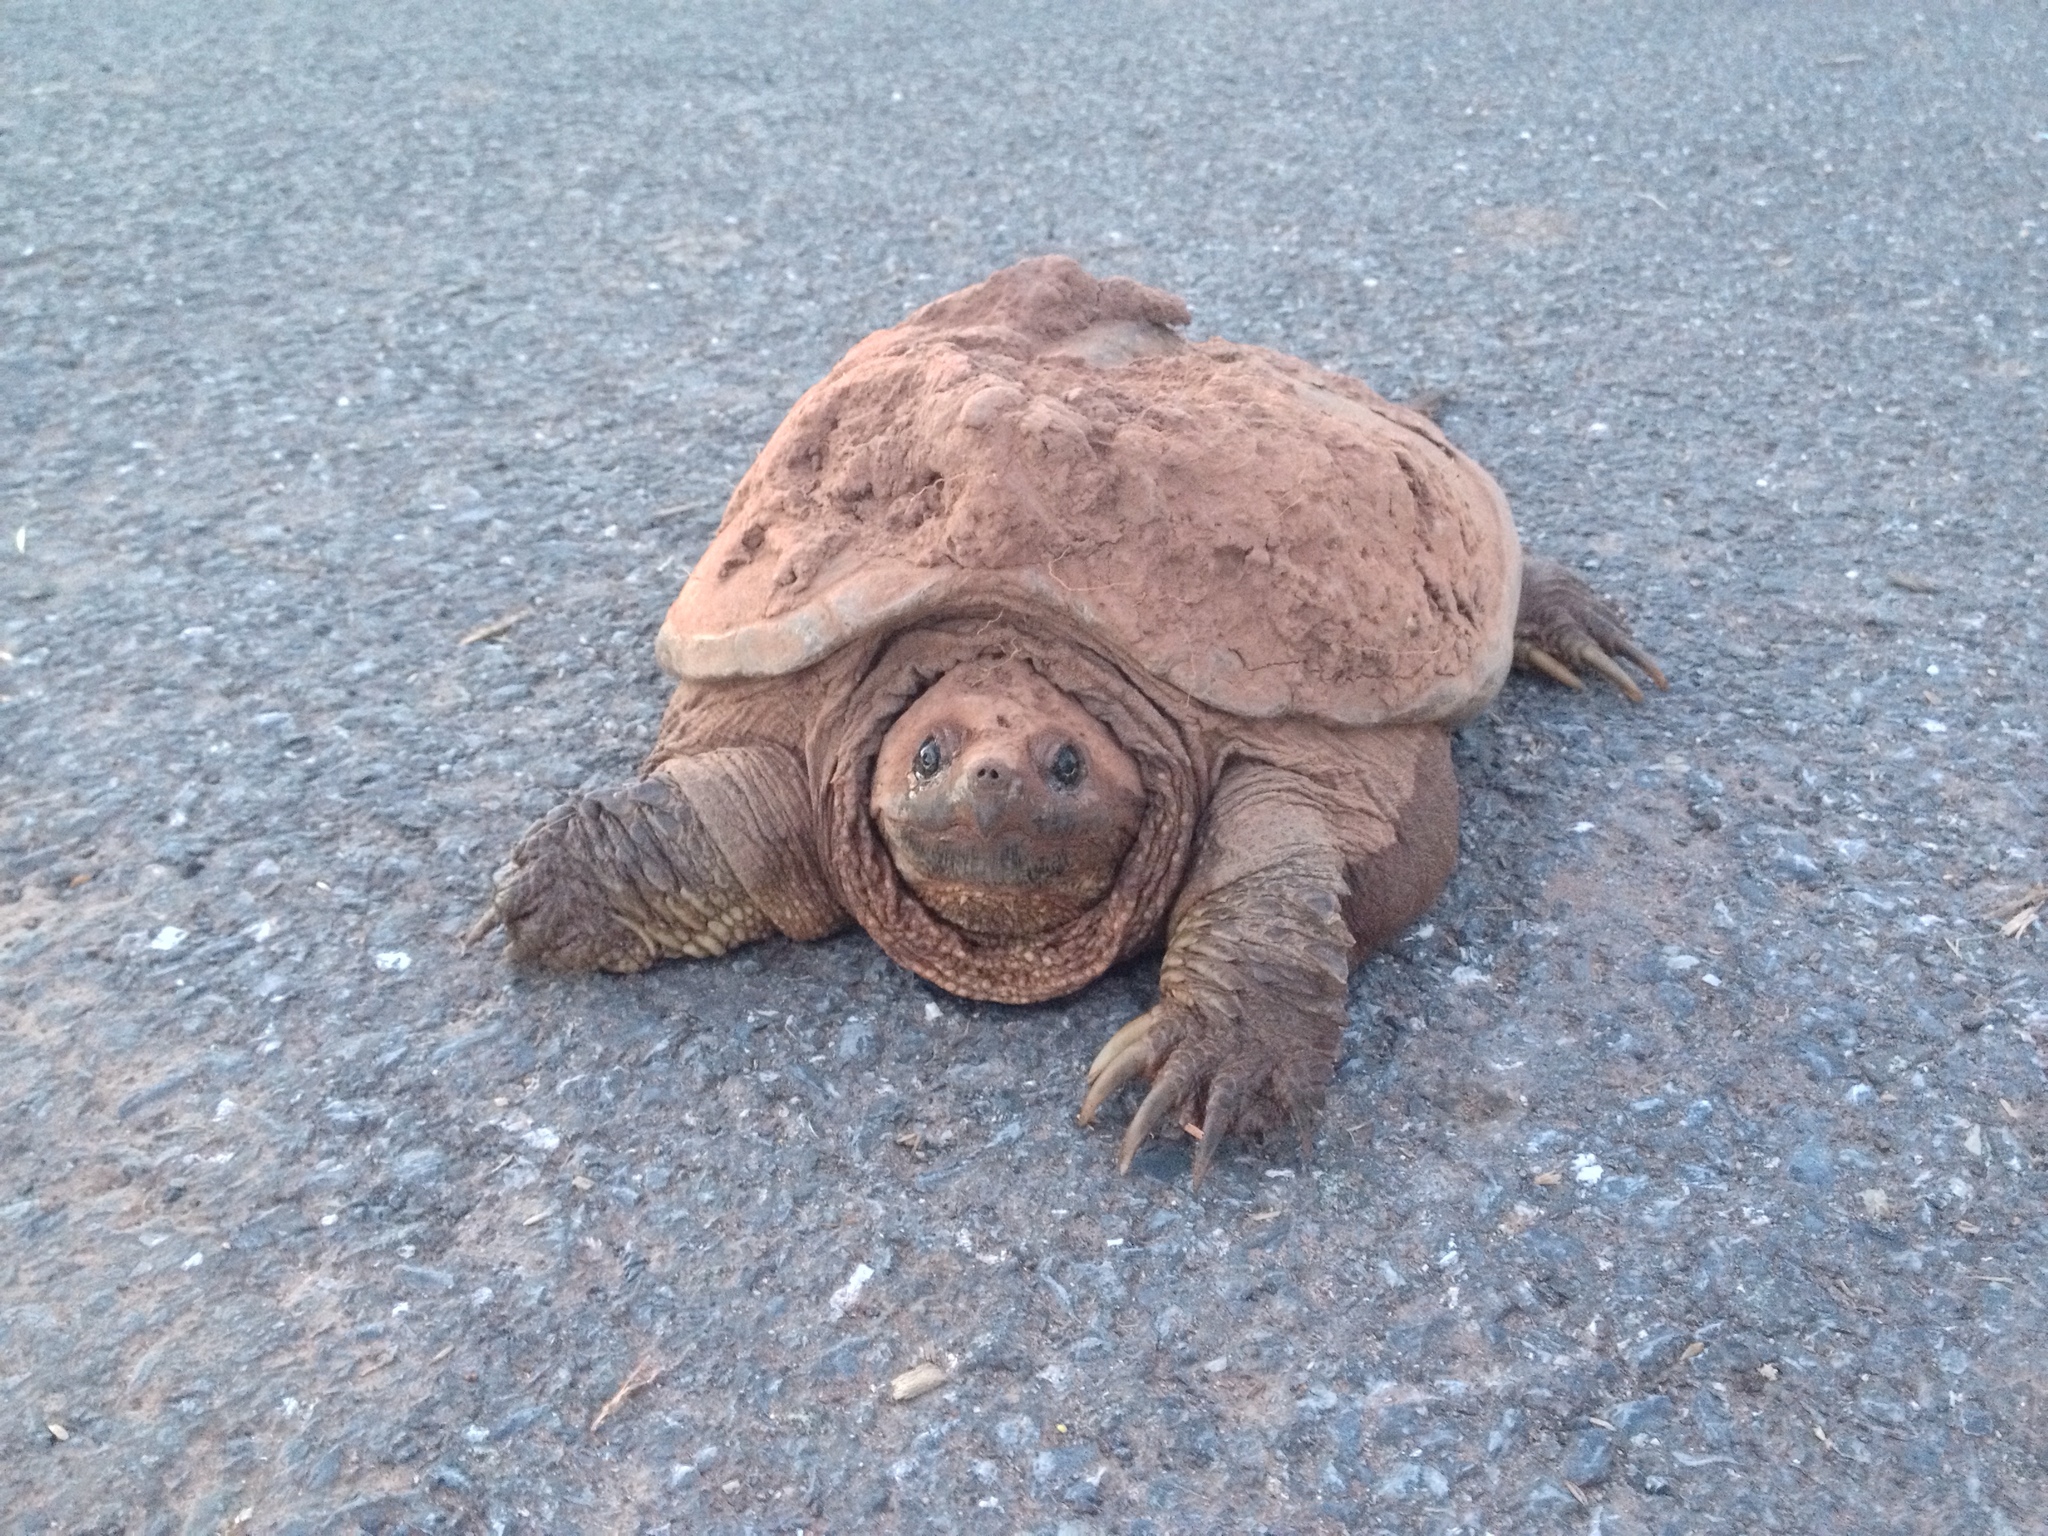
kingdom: Animalia
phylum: Chordata
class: Testudines
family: Chelydridae
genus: Chelydra
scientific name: Chelydra serpentina
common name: Common snapping turtle
